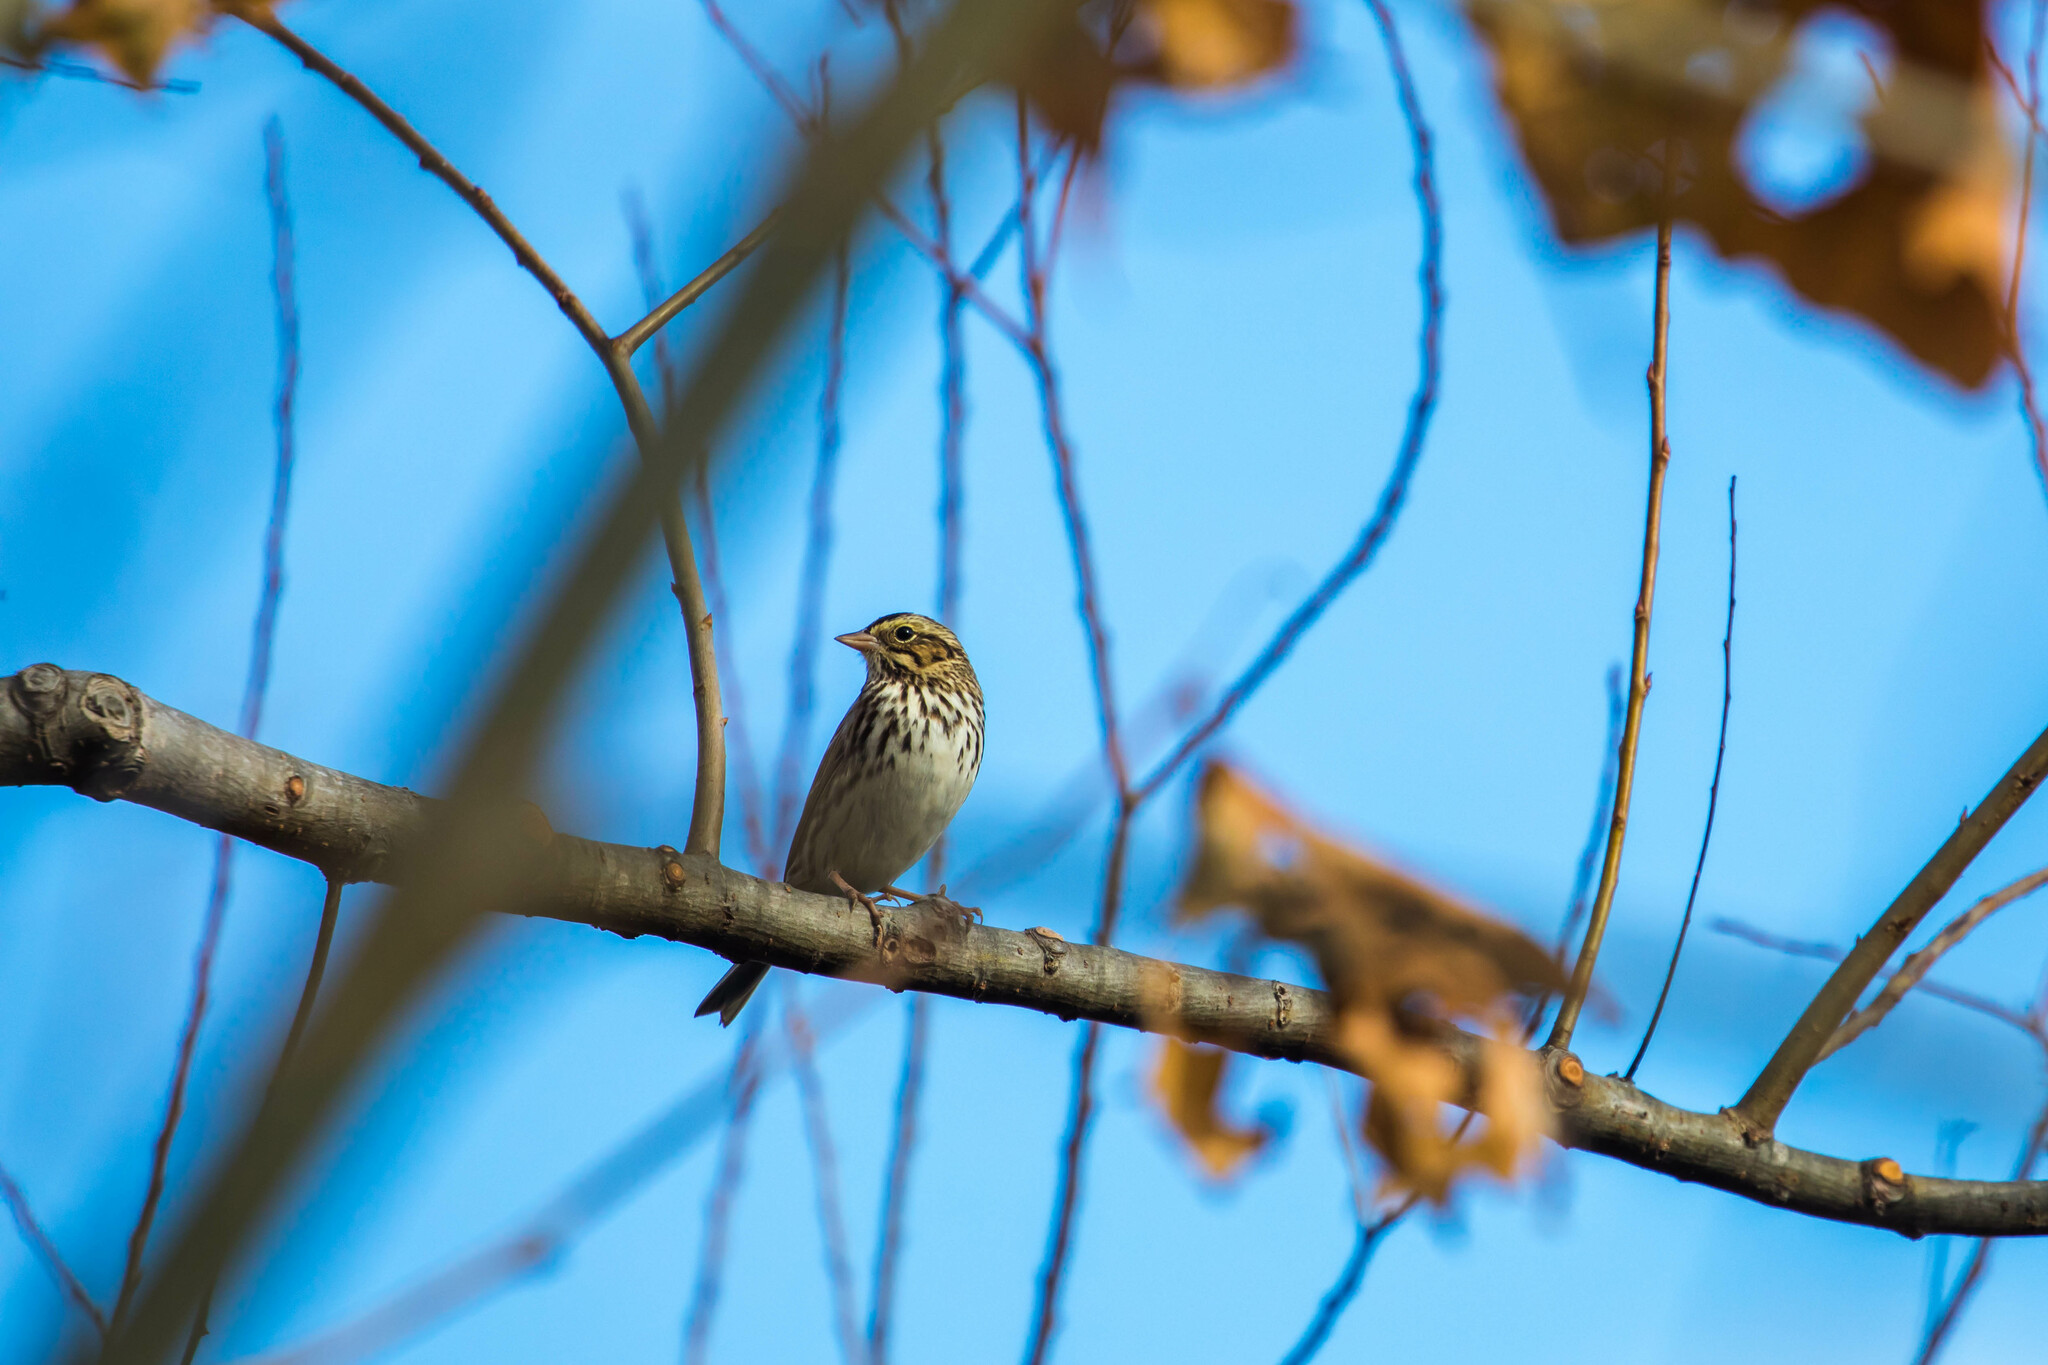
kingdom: Animalia
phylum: Chordata
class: Aves
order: Passeriformes
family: Passerellidae
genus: Passerculus
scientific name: Passerculus sandwichensis
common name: Savannah sparrow
